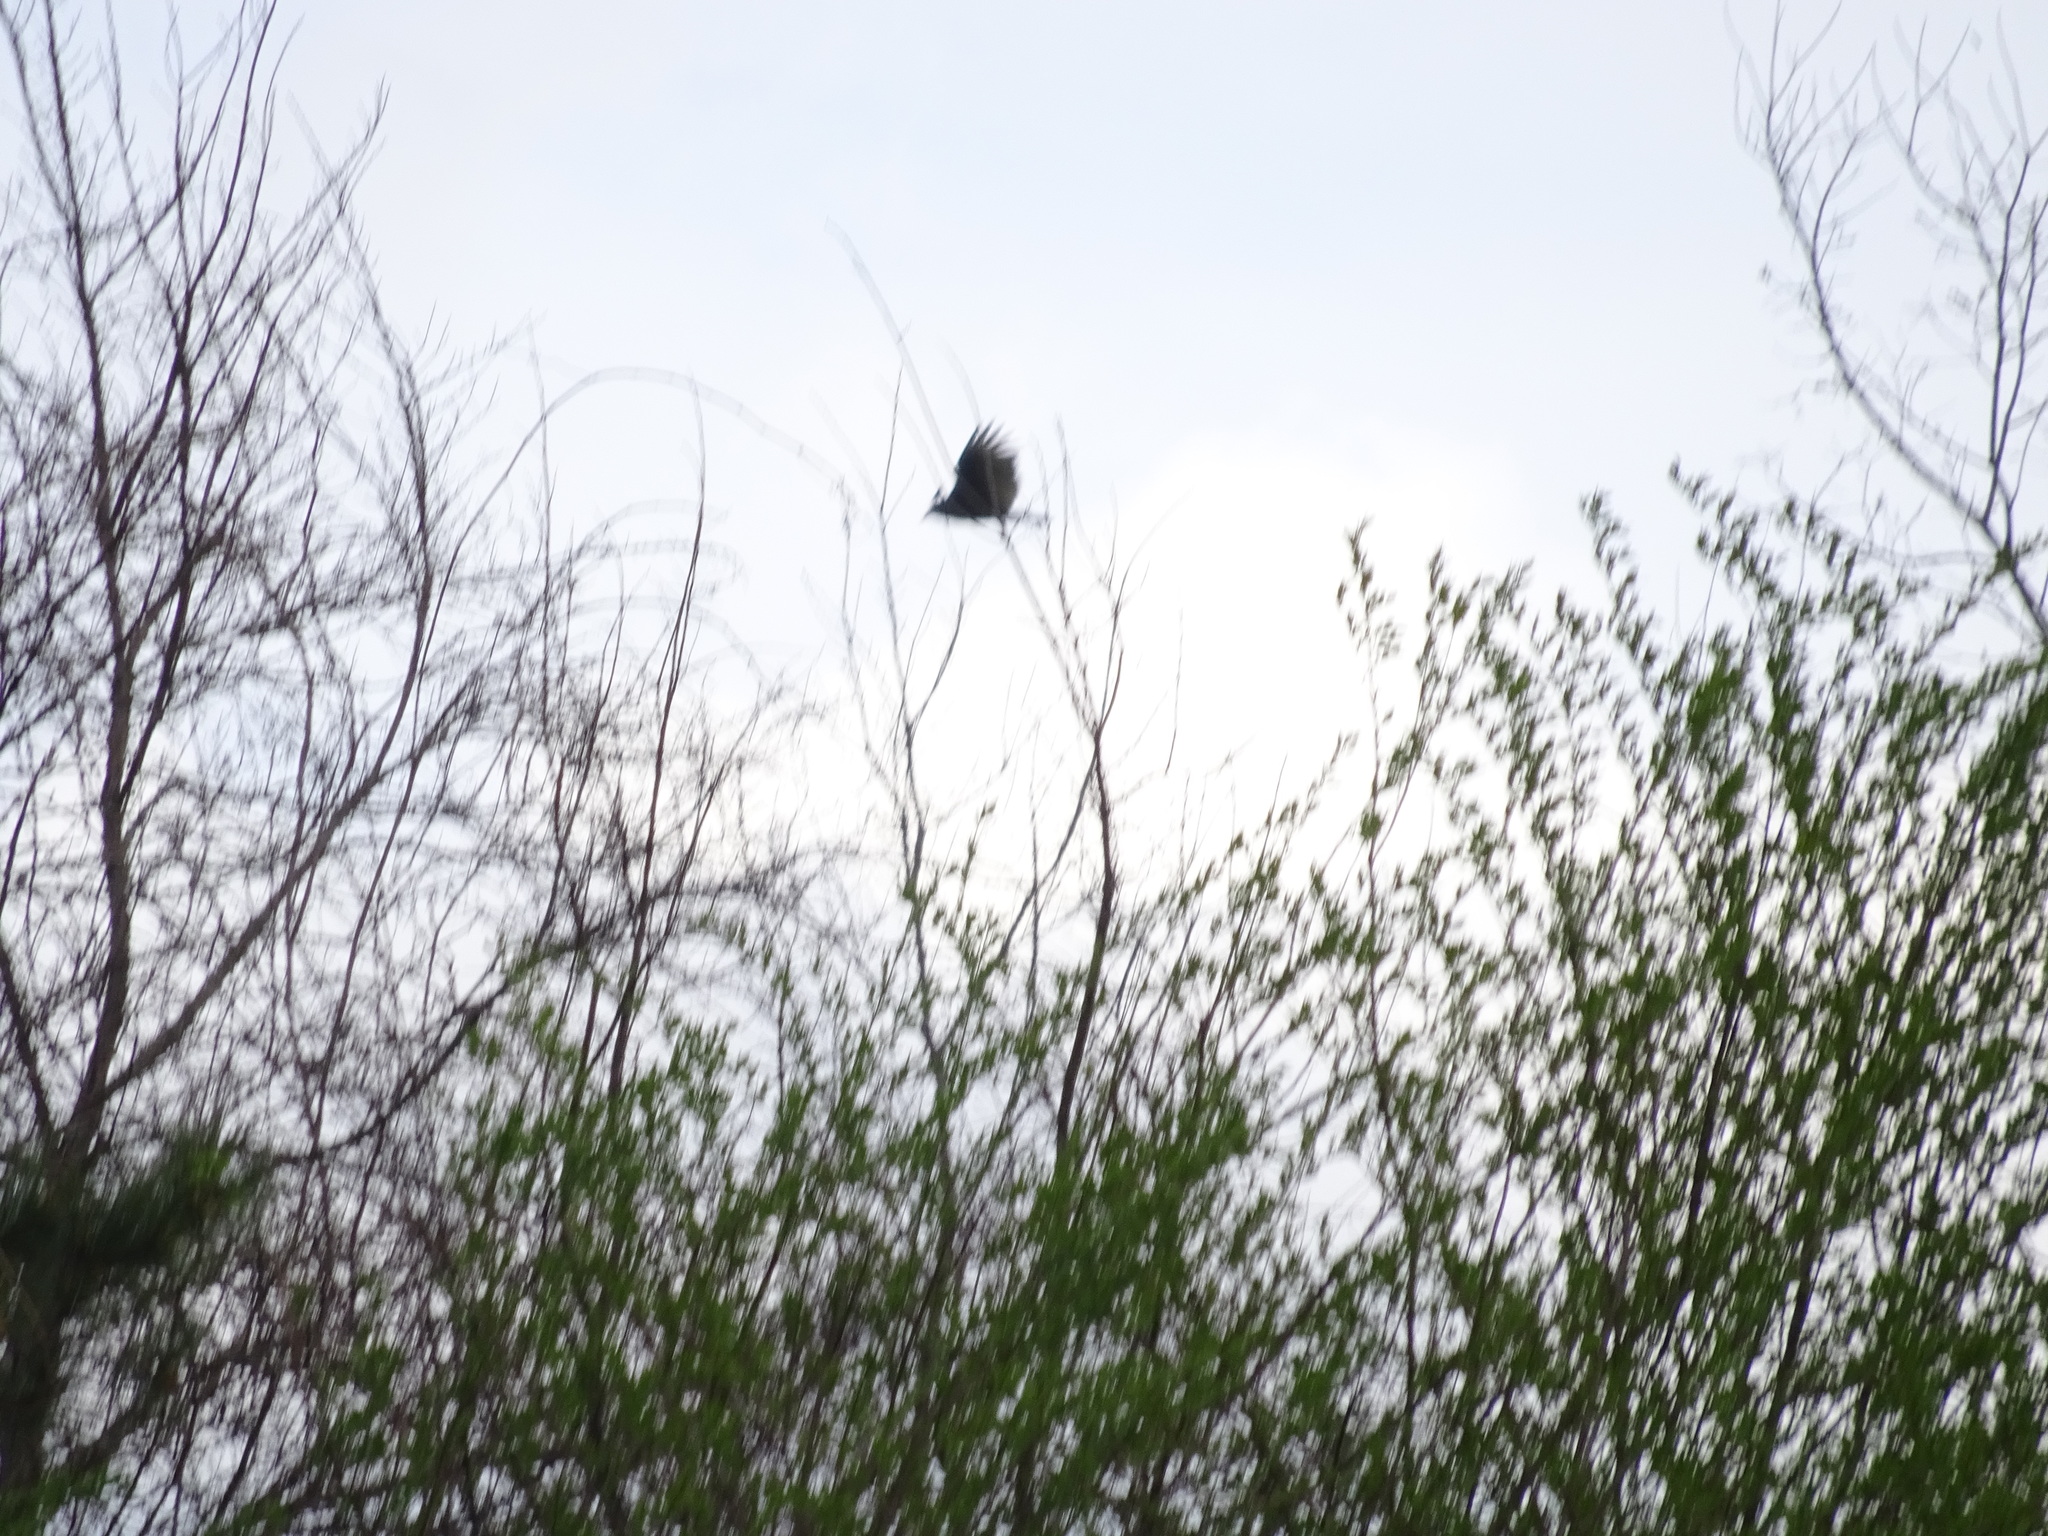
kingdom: Animalia
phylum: Chordata
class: Aves
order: Accipitriformes
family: Cathartidae
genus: Cathartes
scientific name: Cathartes aura
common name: Turkey vulture
